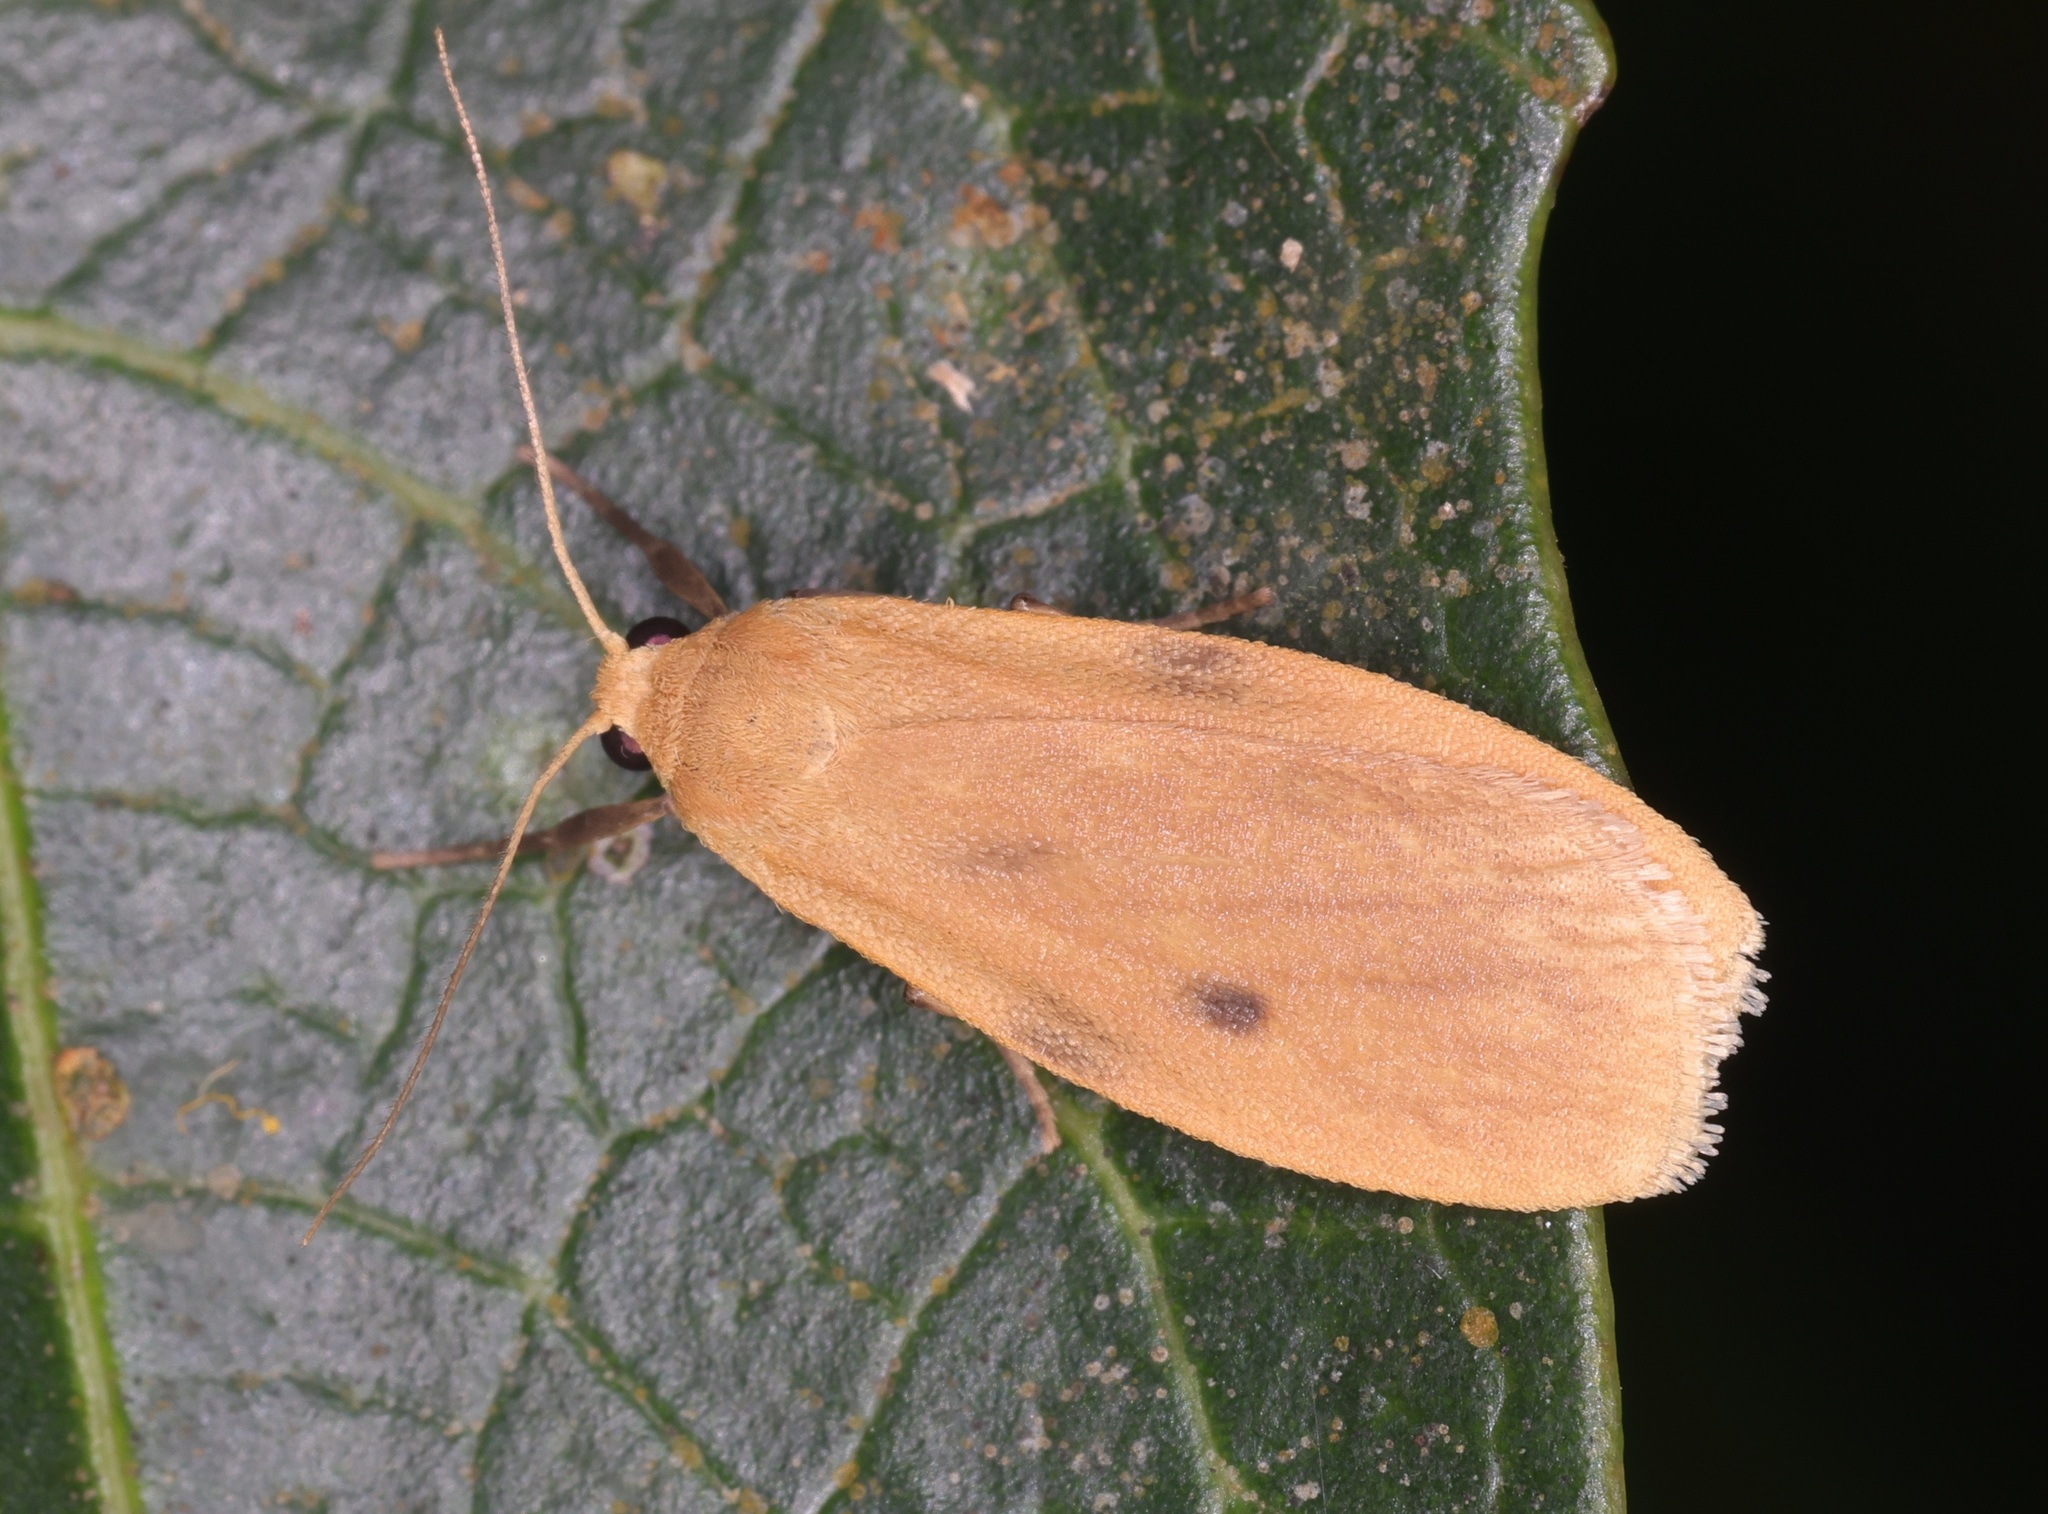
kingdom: Animalia
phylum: Arthropoda
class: Insecta
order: Lepidoptera
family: Erebidae
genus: Microlithosia
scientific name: Microlithosia shaowuica
